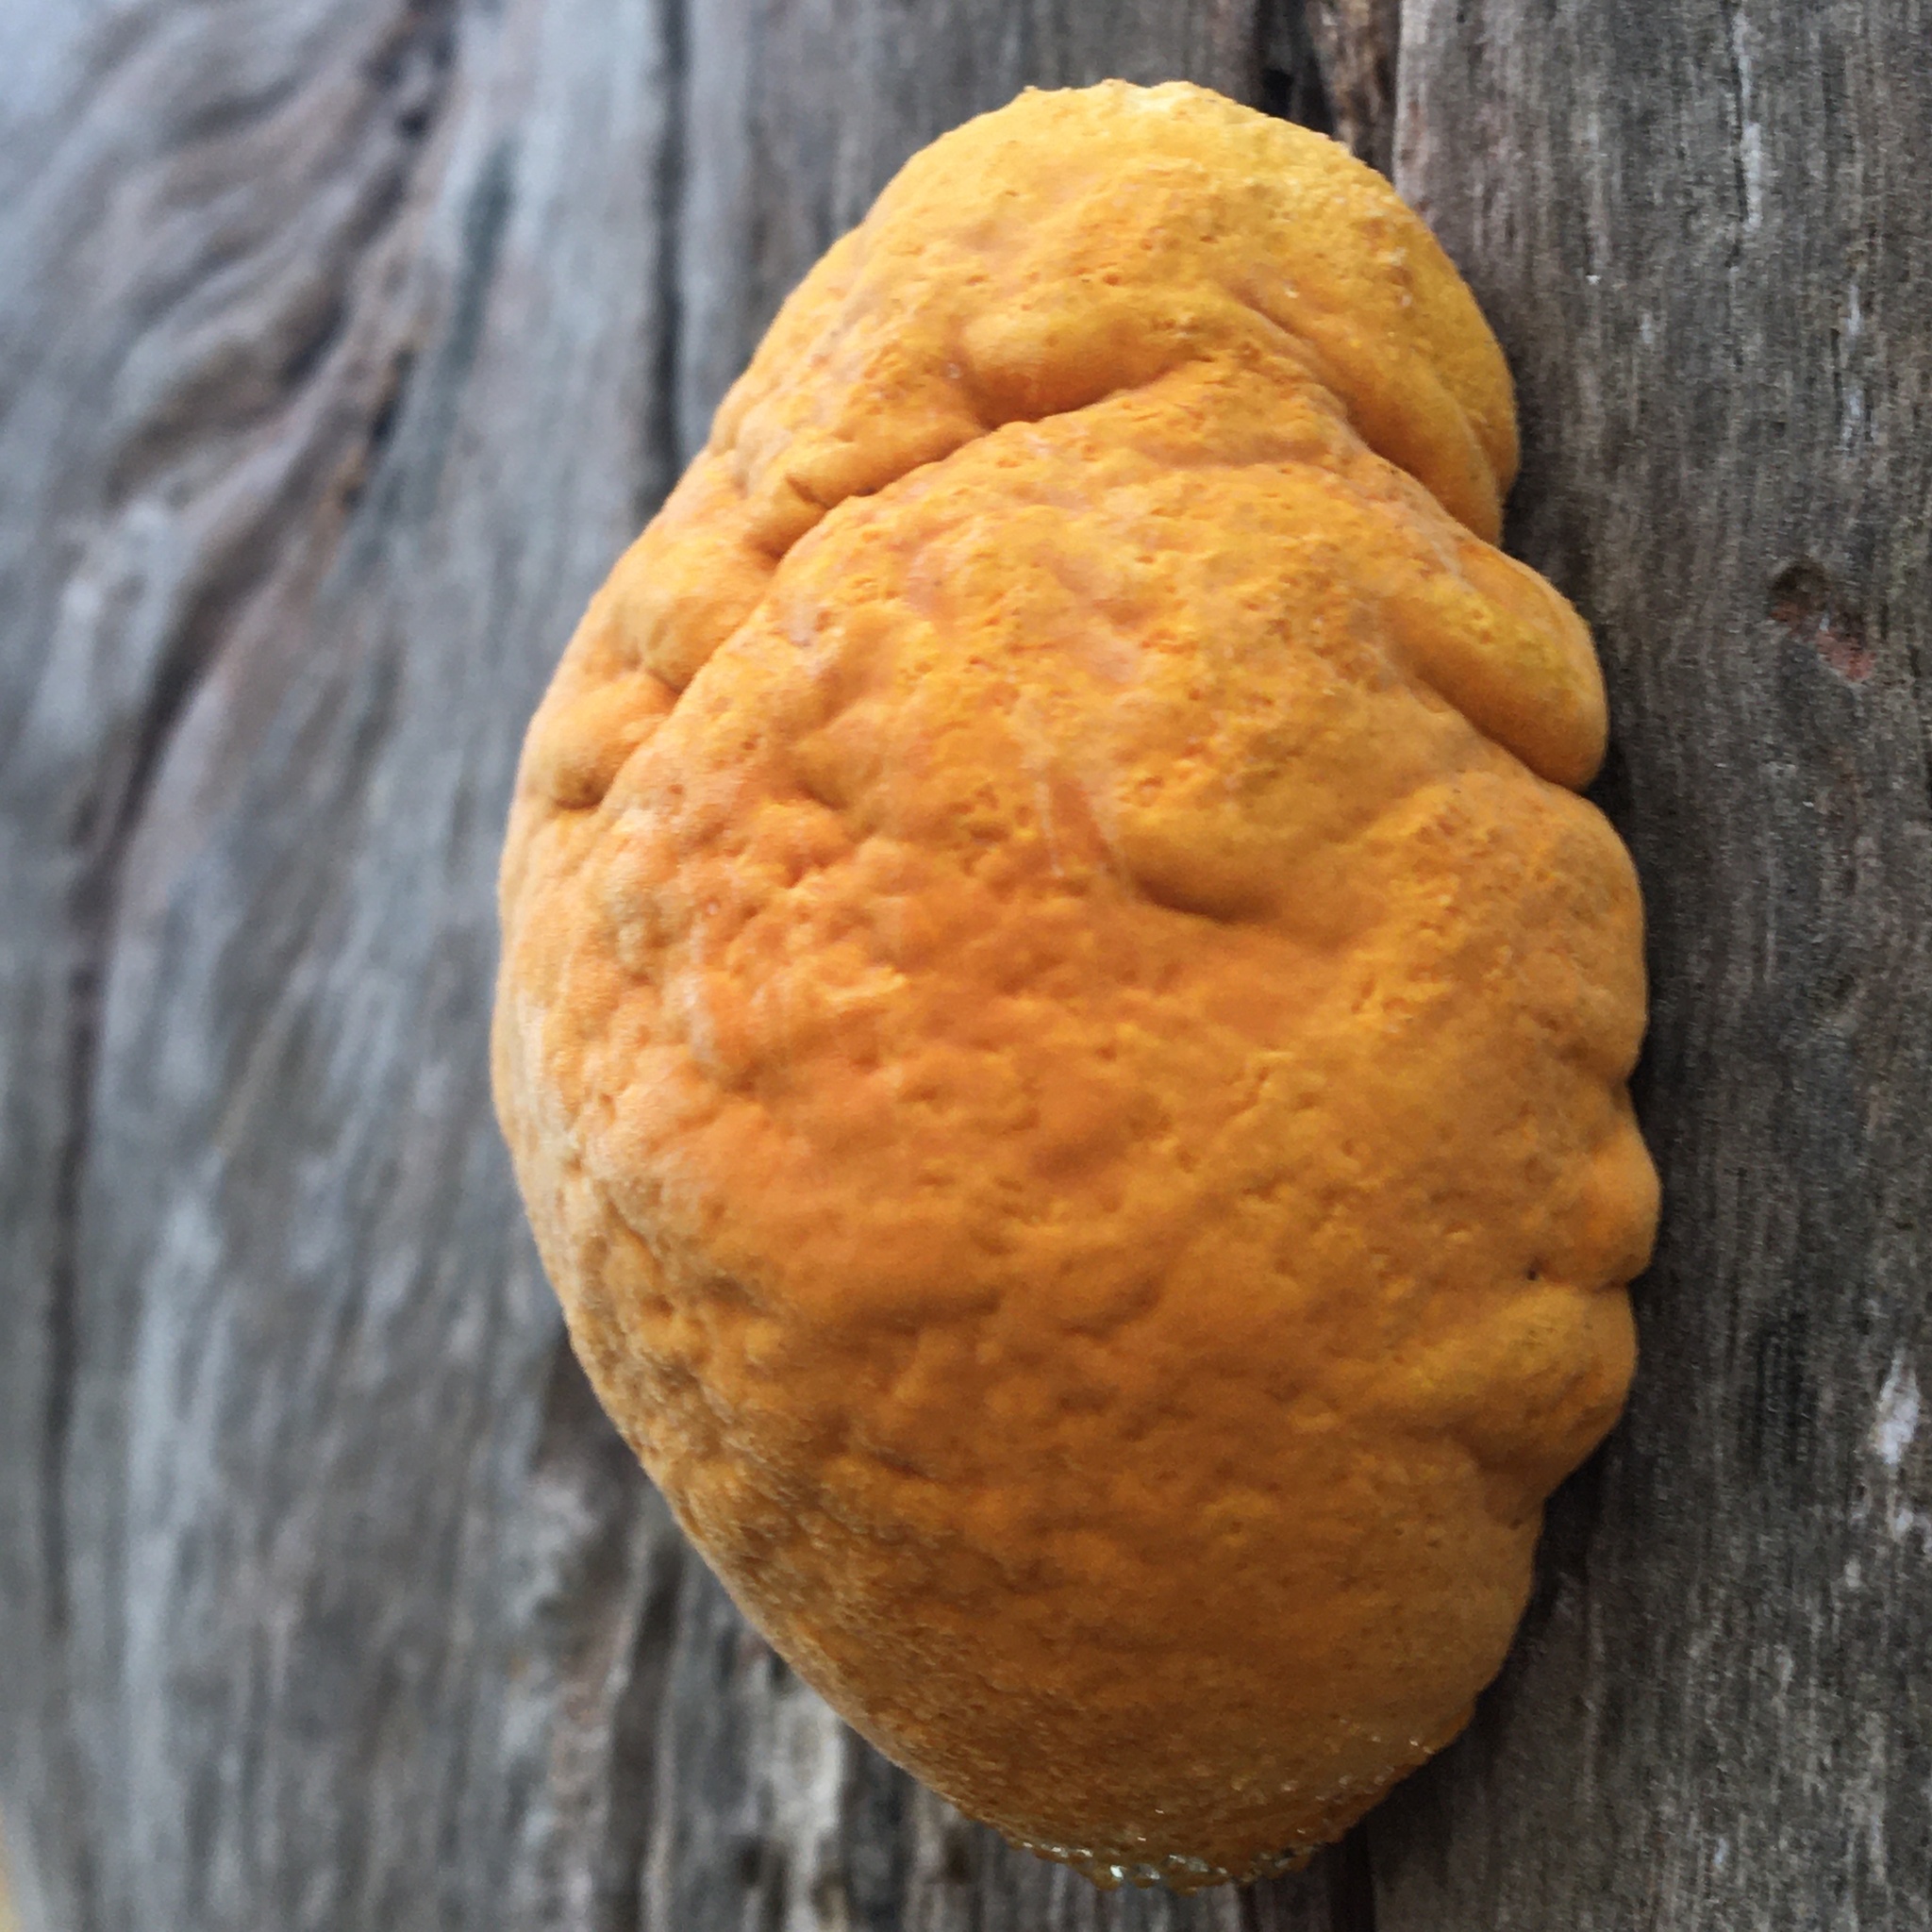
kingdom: Fungi
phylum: Basidiomycota
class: Agaricomycetes
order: Polyporales
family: Polyporaceae
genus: Polyporus
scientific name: Polyporus australiensis
